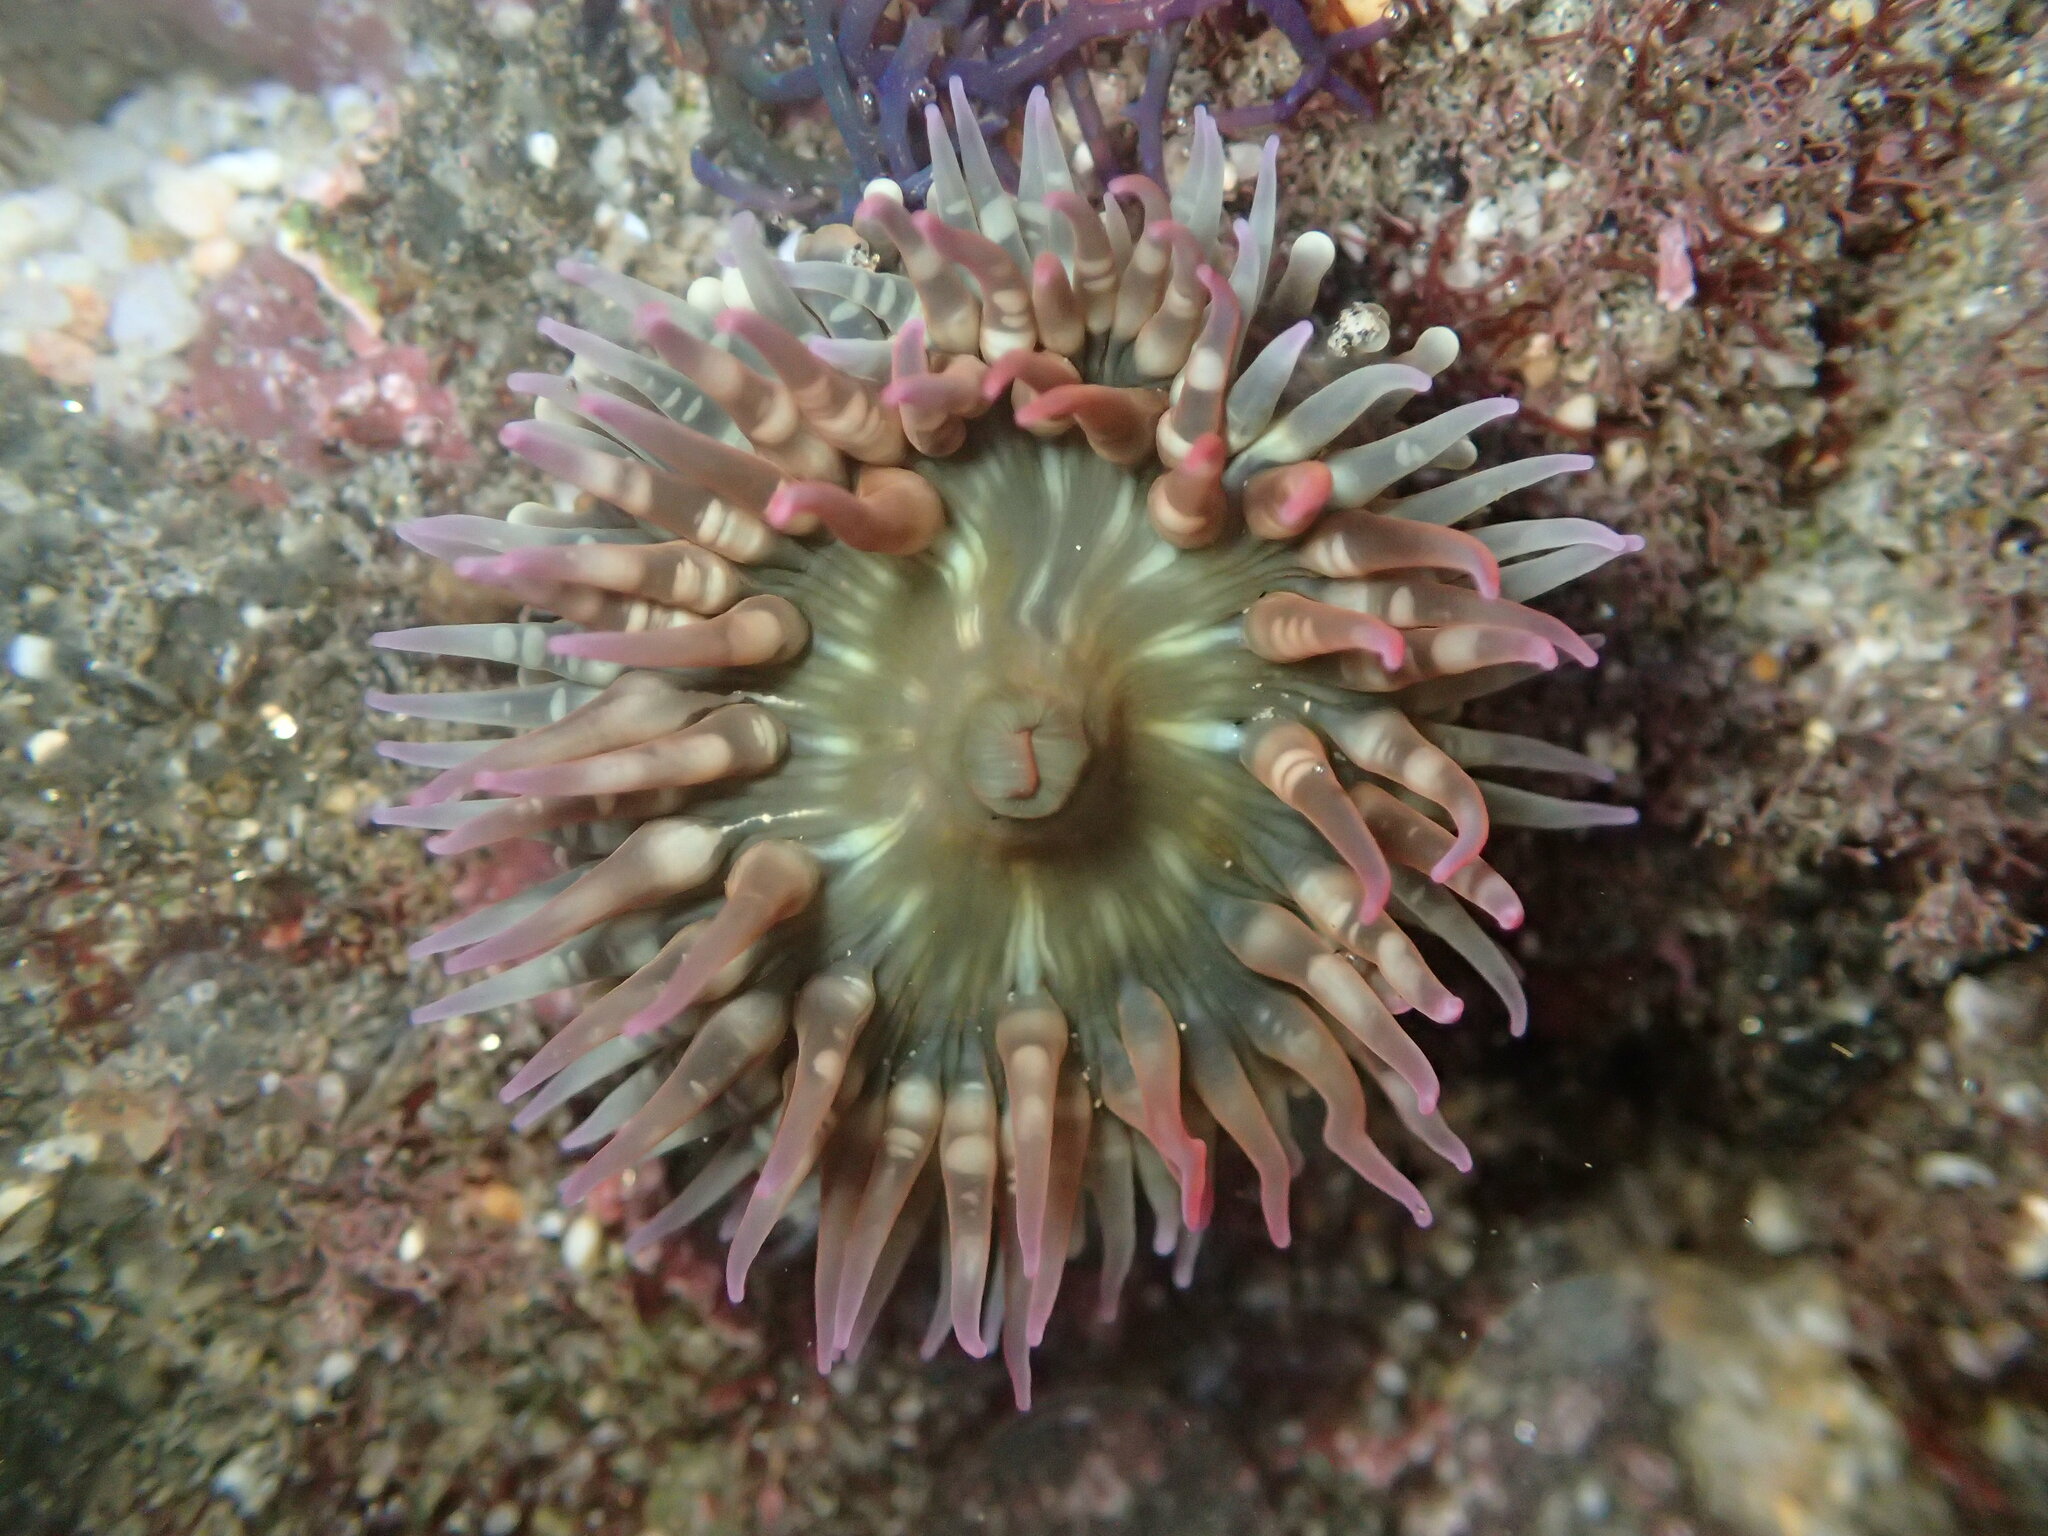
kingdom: Animalia
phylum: Cnidaria
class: Anthozoa
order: Actiniaria
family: Actiniidae
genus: Bunodosoma
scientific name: Bunodosoma californicum
